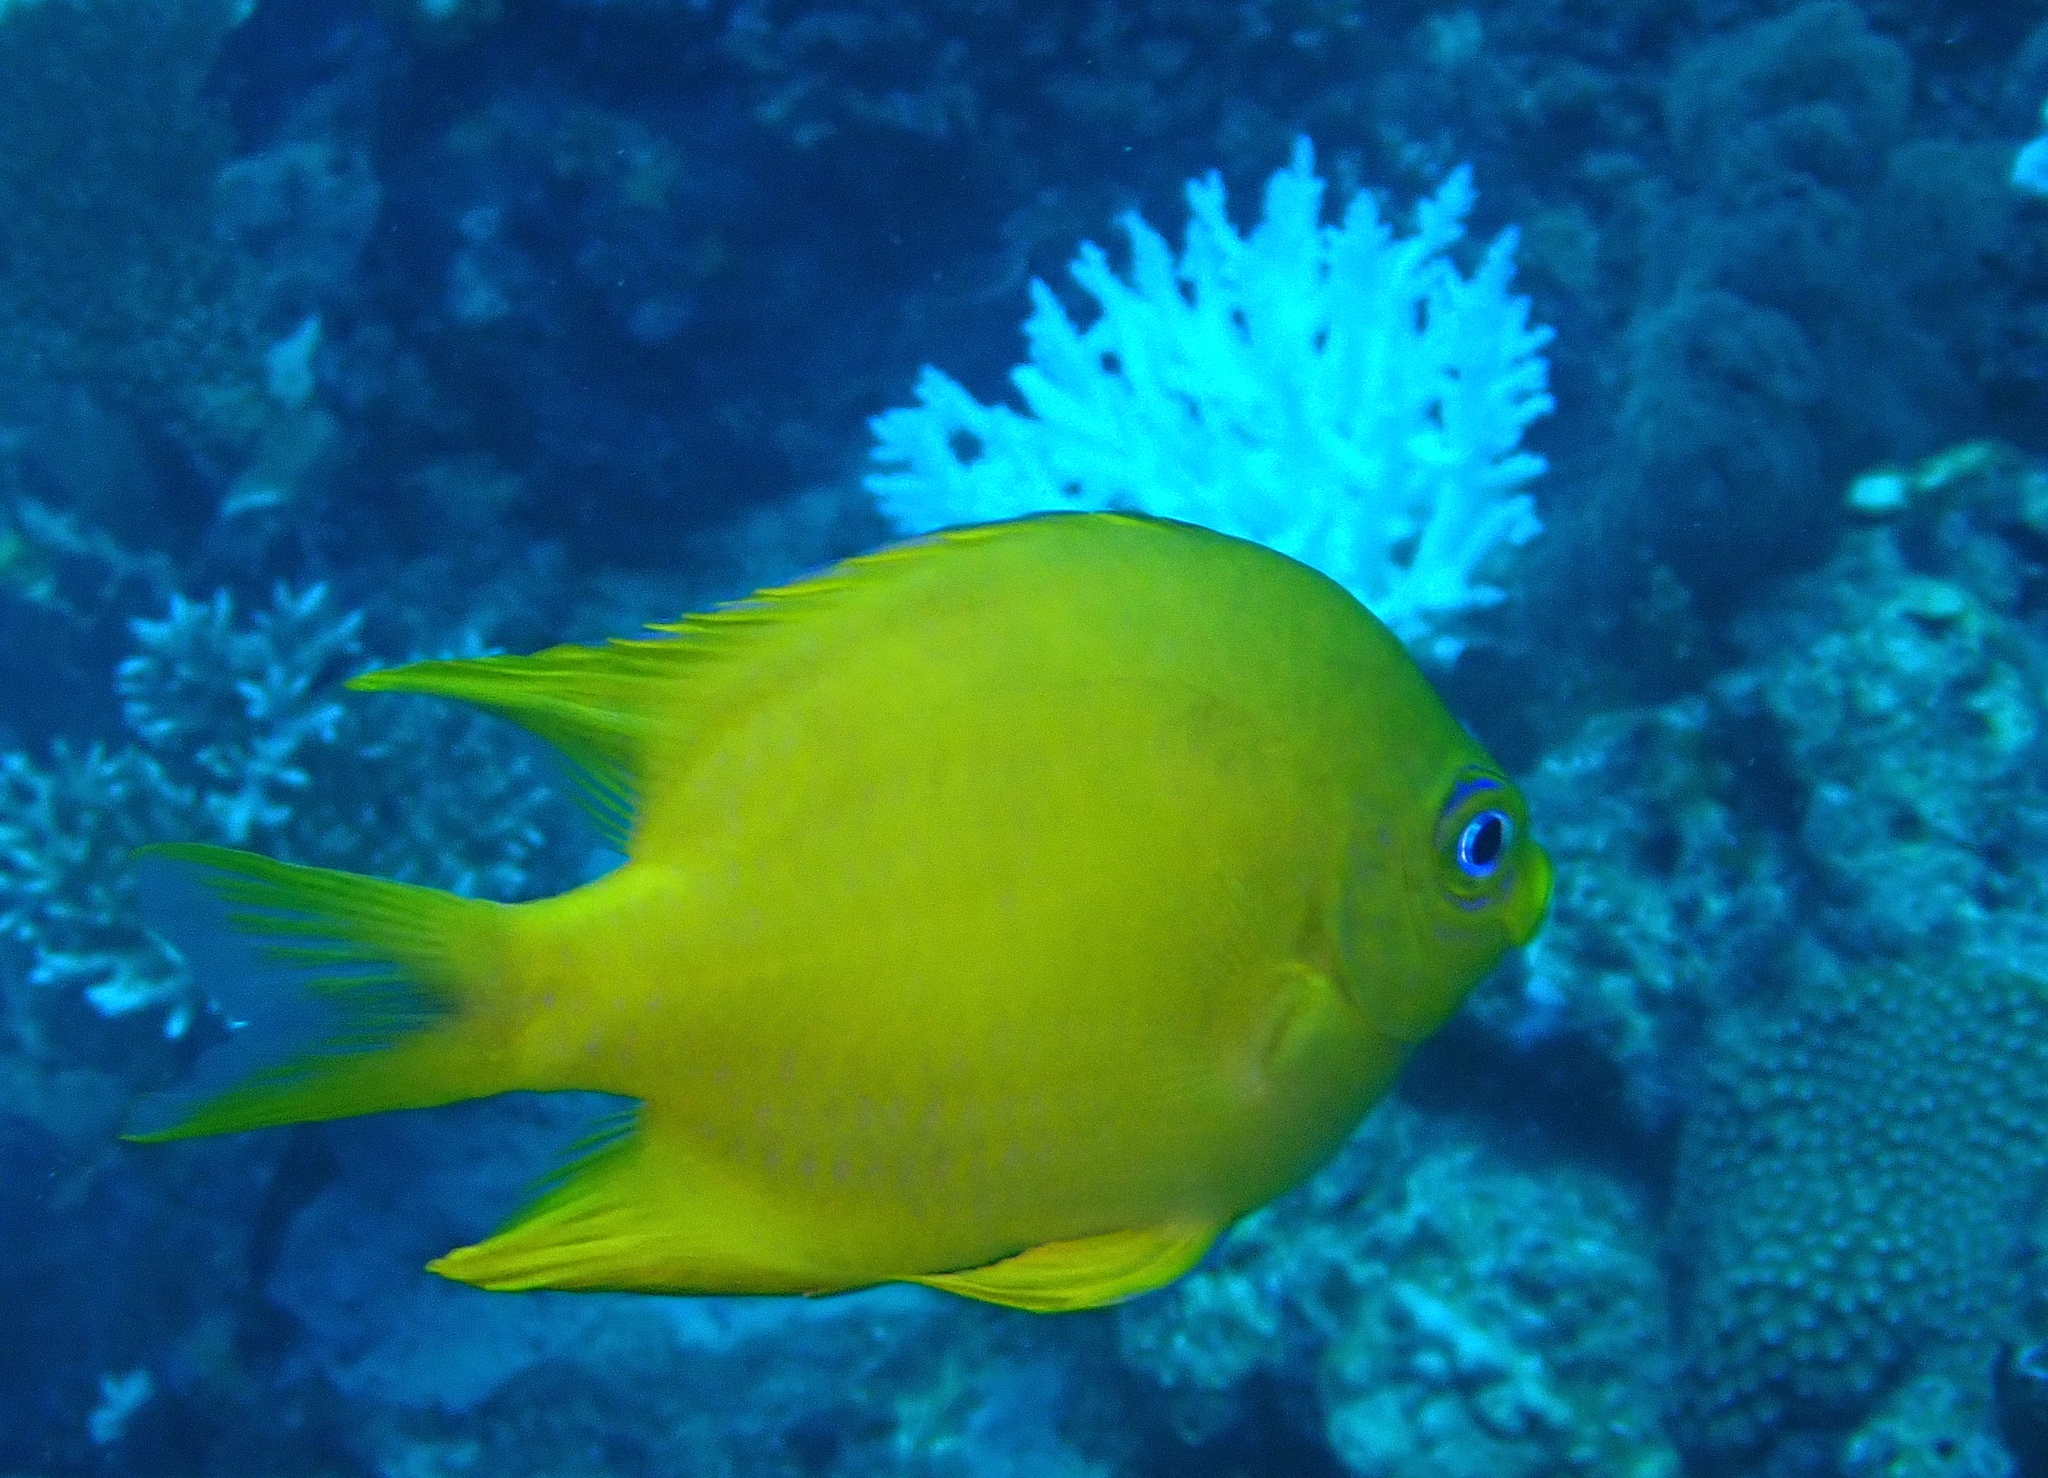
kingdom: Animalia
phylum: Chordata
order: Perciformes
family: Pomacentridae
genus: Amblyglyphidodon
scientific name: Amblyglyphidodon aureus
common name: Golden damsel
